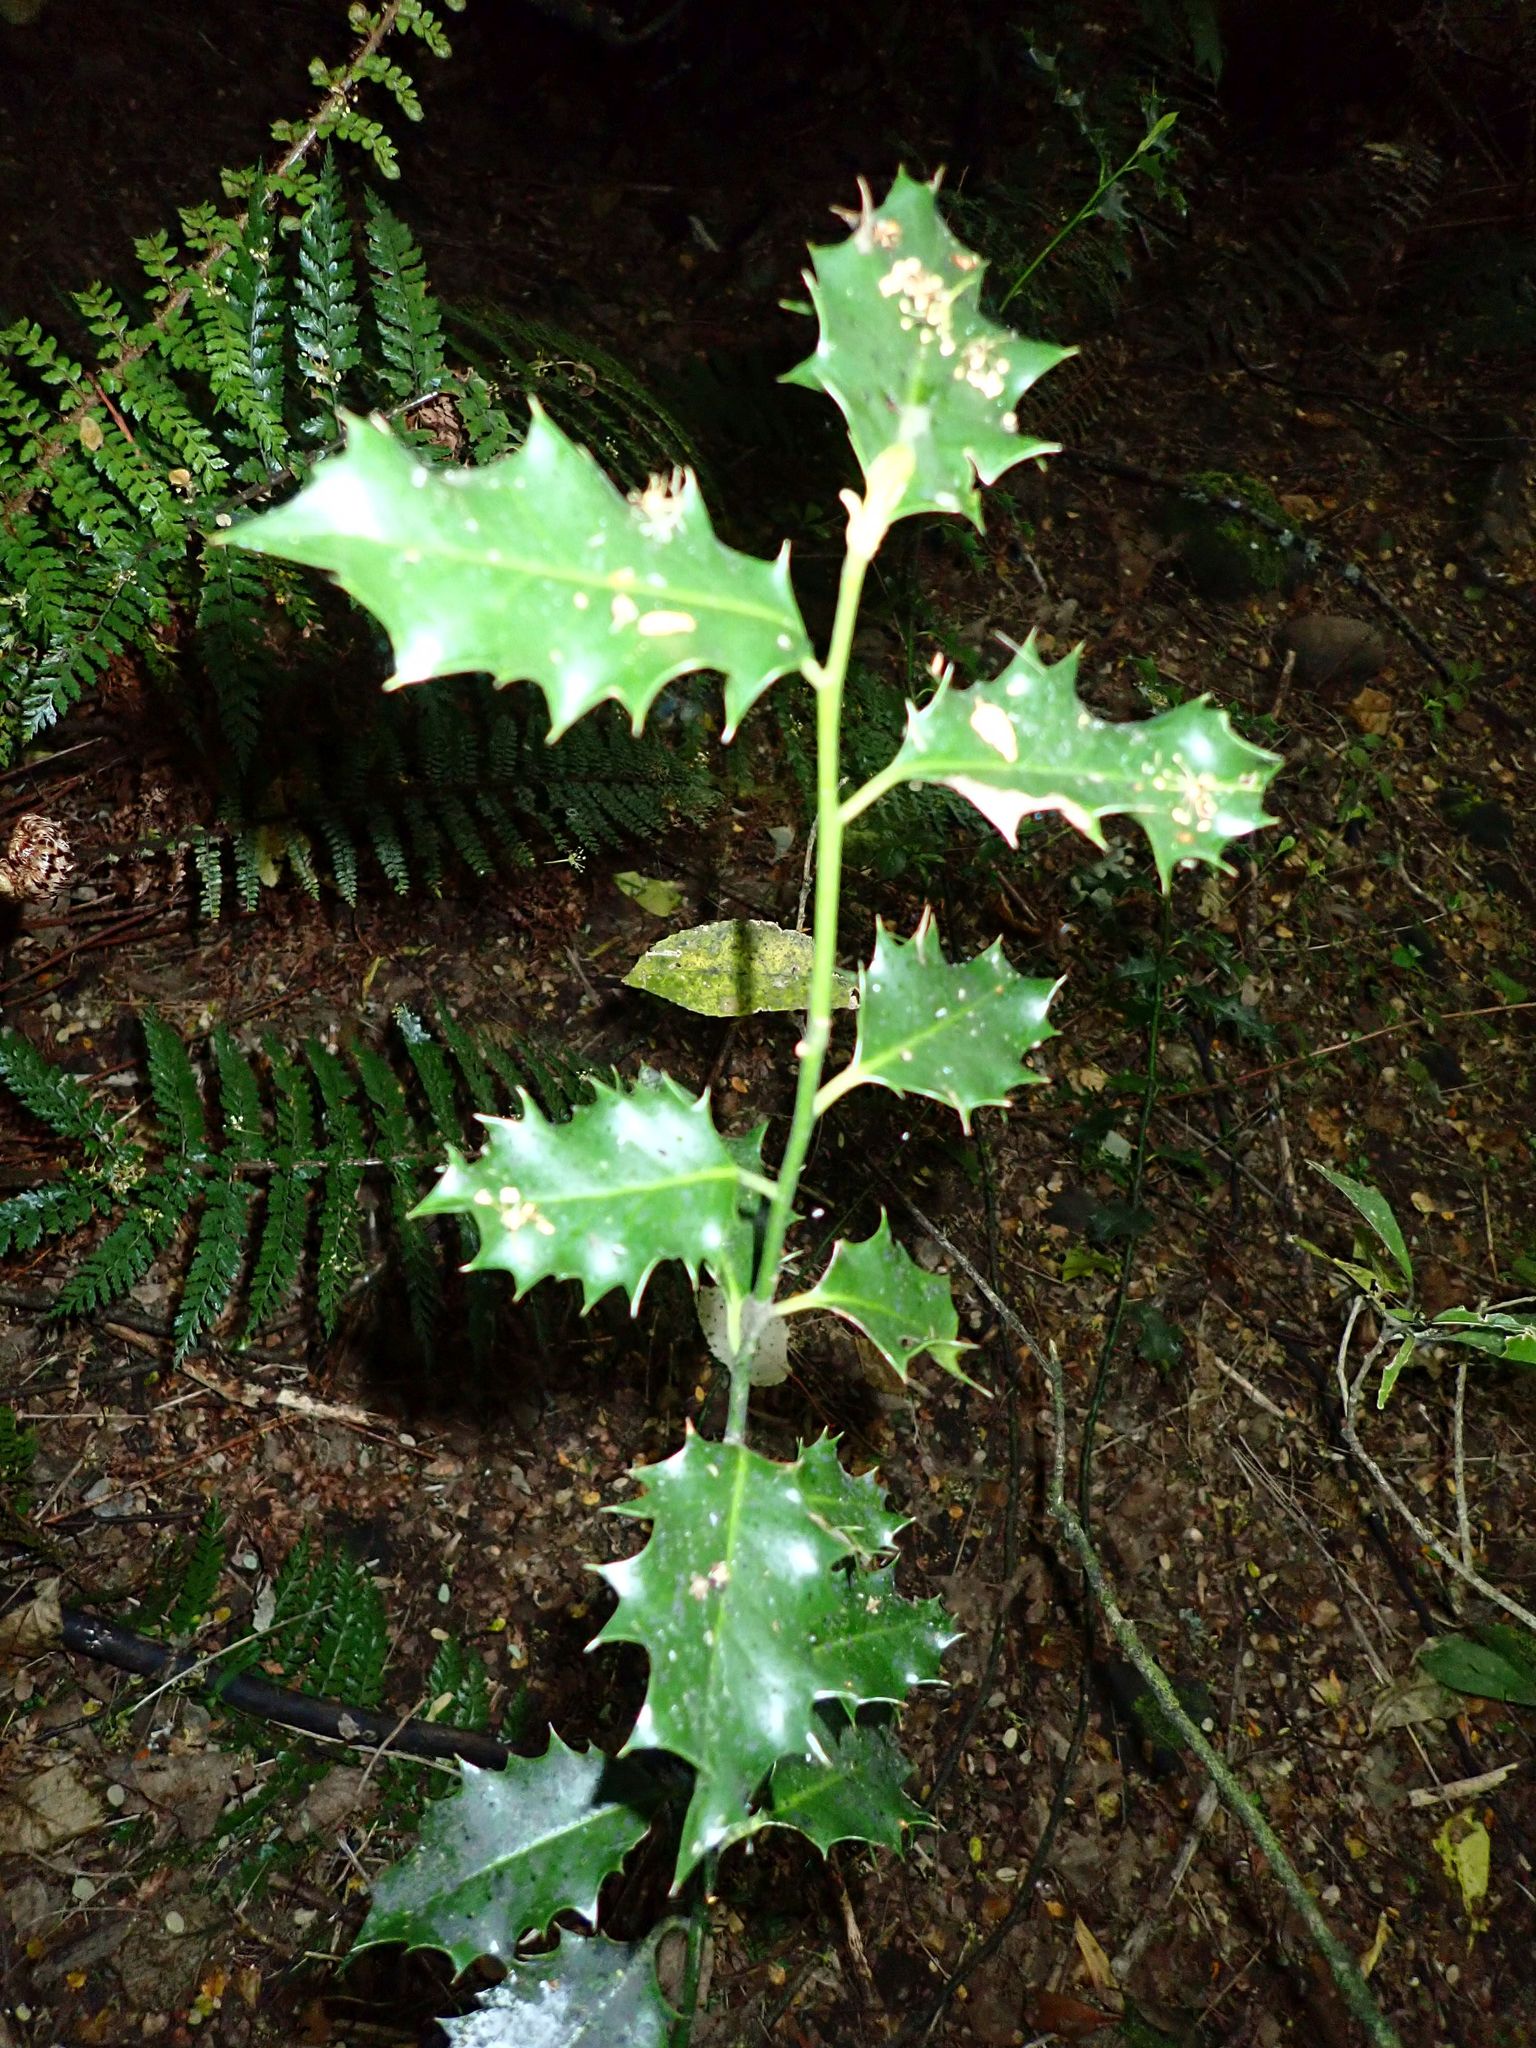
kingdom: Plantae
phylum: Tracheophyta
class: Magnoliopsida
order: Aquifoliales
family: Aquifoliaceae
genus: Ilex
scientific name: Ilex aquifolium
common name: English holly
